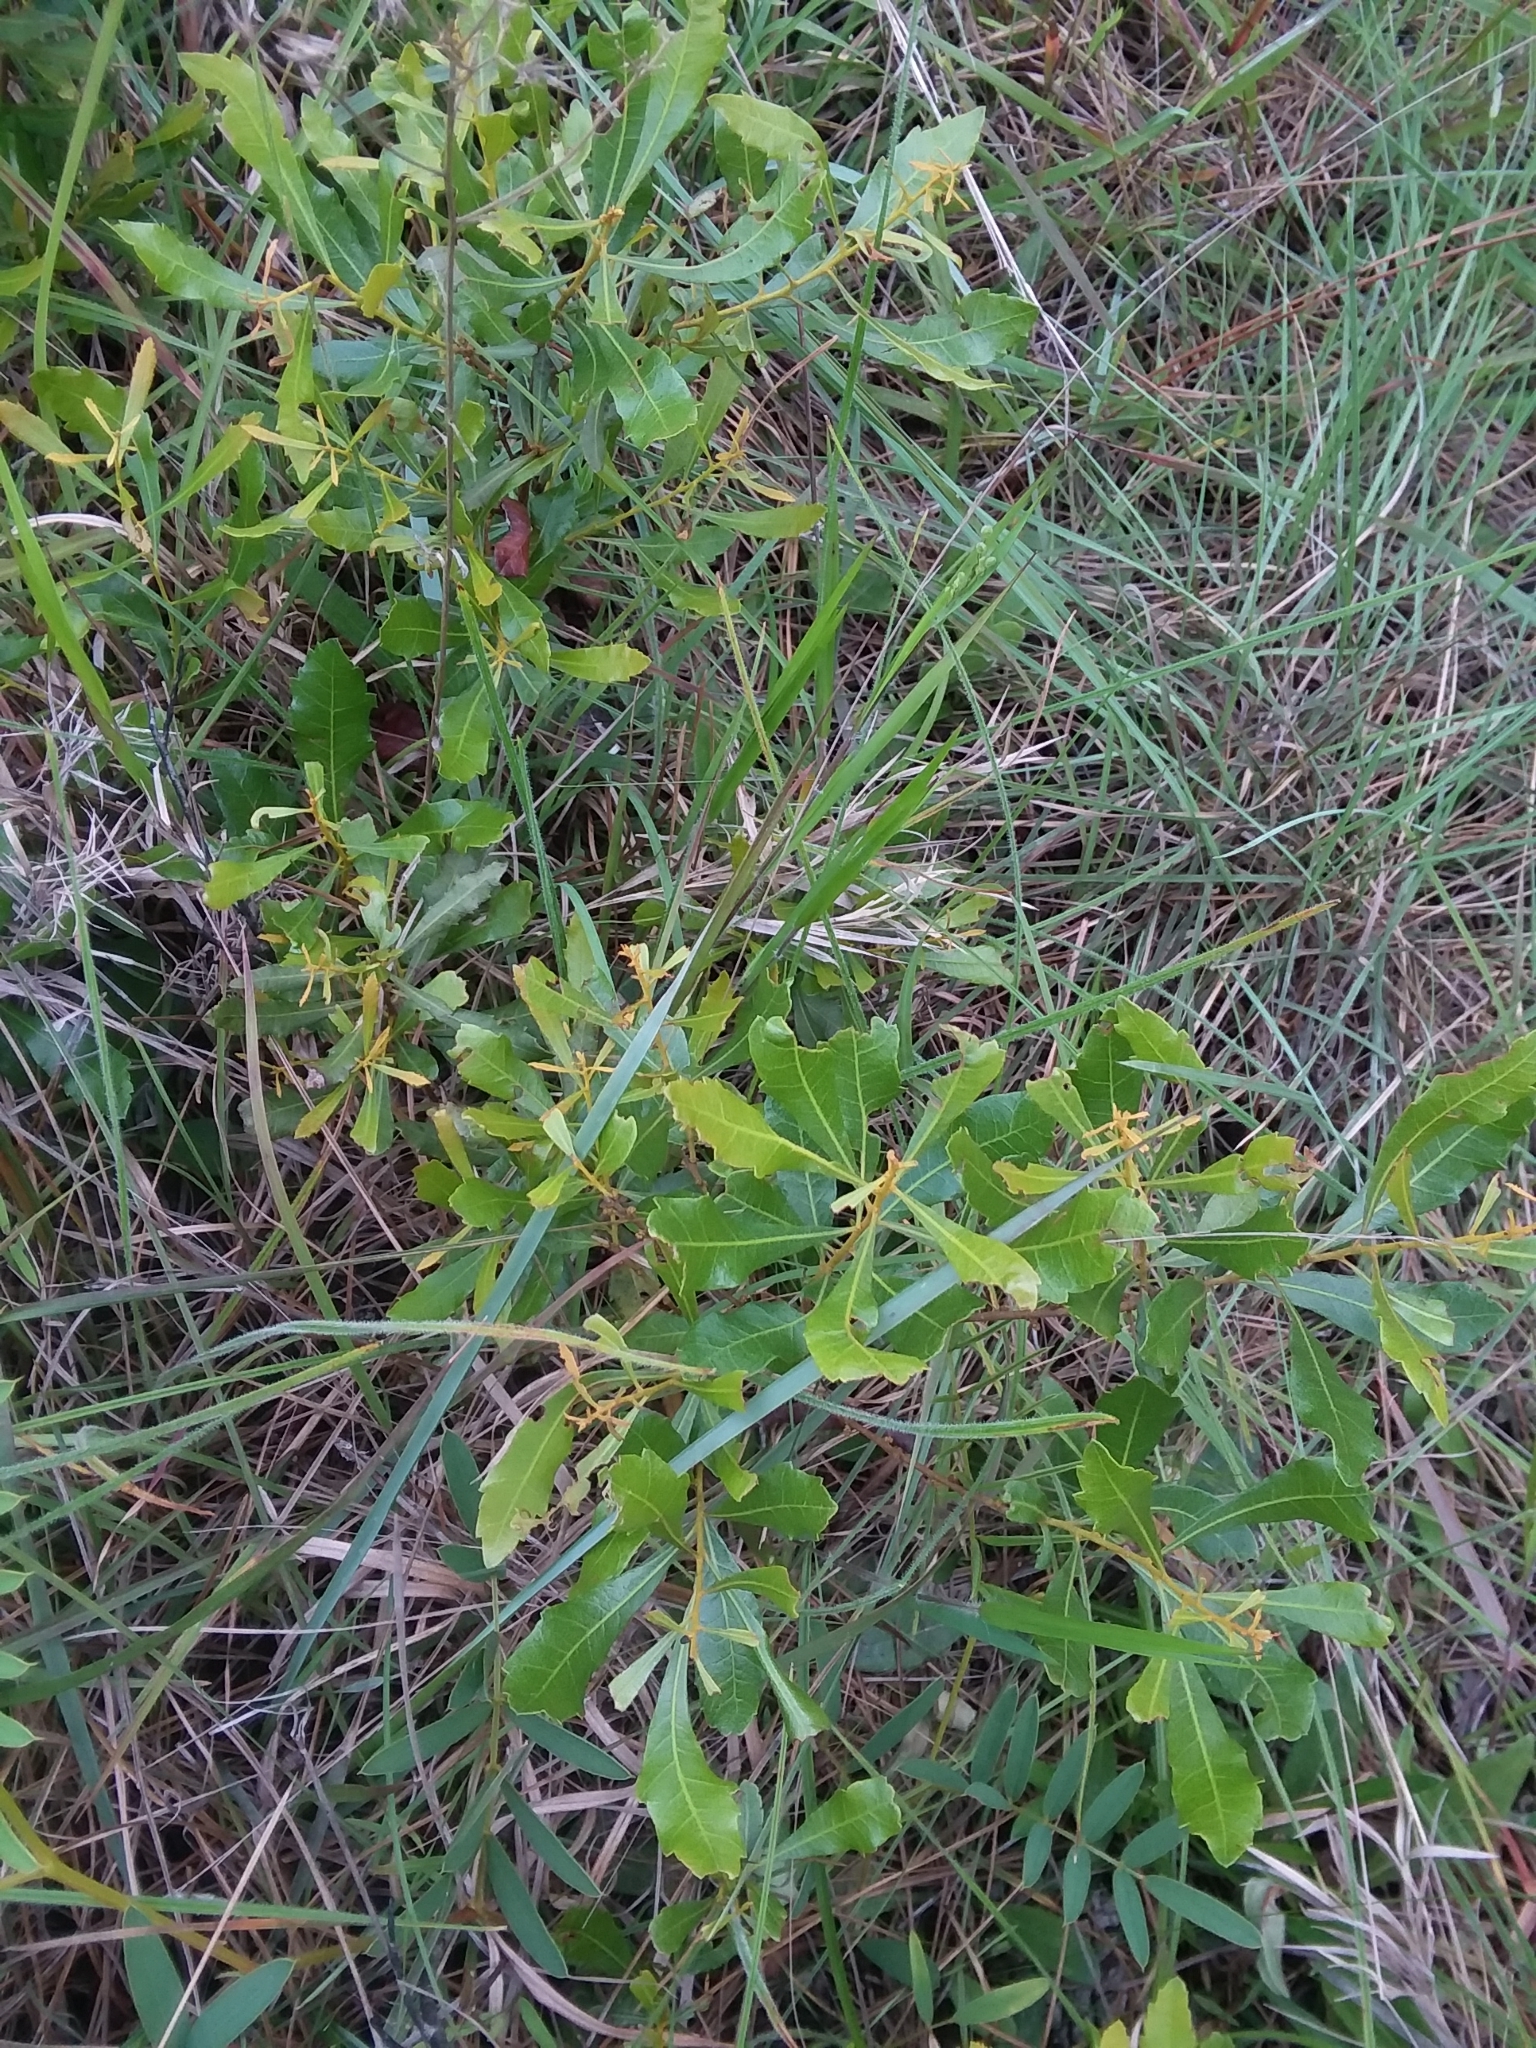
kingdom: Plantae
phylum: Tracheophyta
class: Magnoliopsida
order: Fagales
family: Myricaceae
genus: Morella
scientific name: Morella cerifera
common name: Wax myrtle
